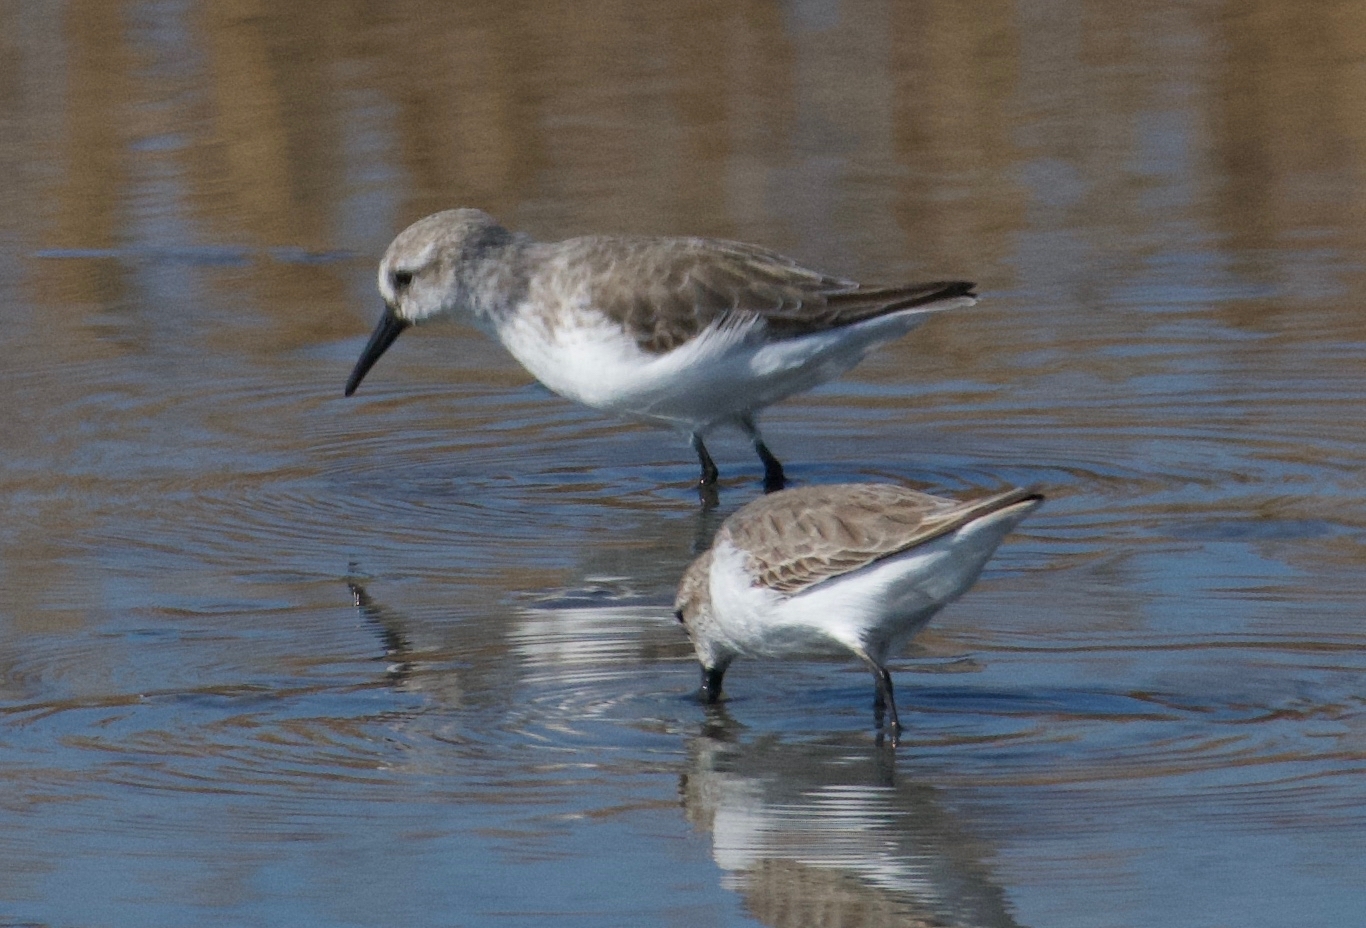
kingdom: Animalia
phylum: Chordata
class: Aves
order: Charadriiformes
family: Scolopacidae
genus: Calidris
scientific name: Calidris mauri
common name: Western sandpiper
